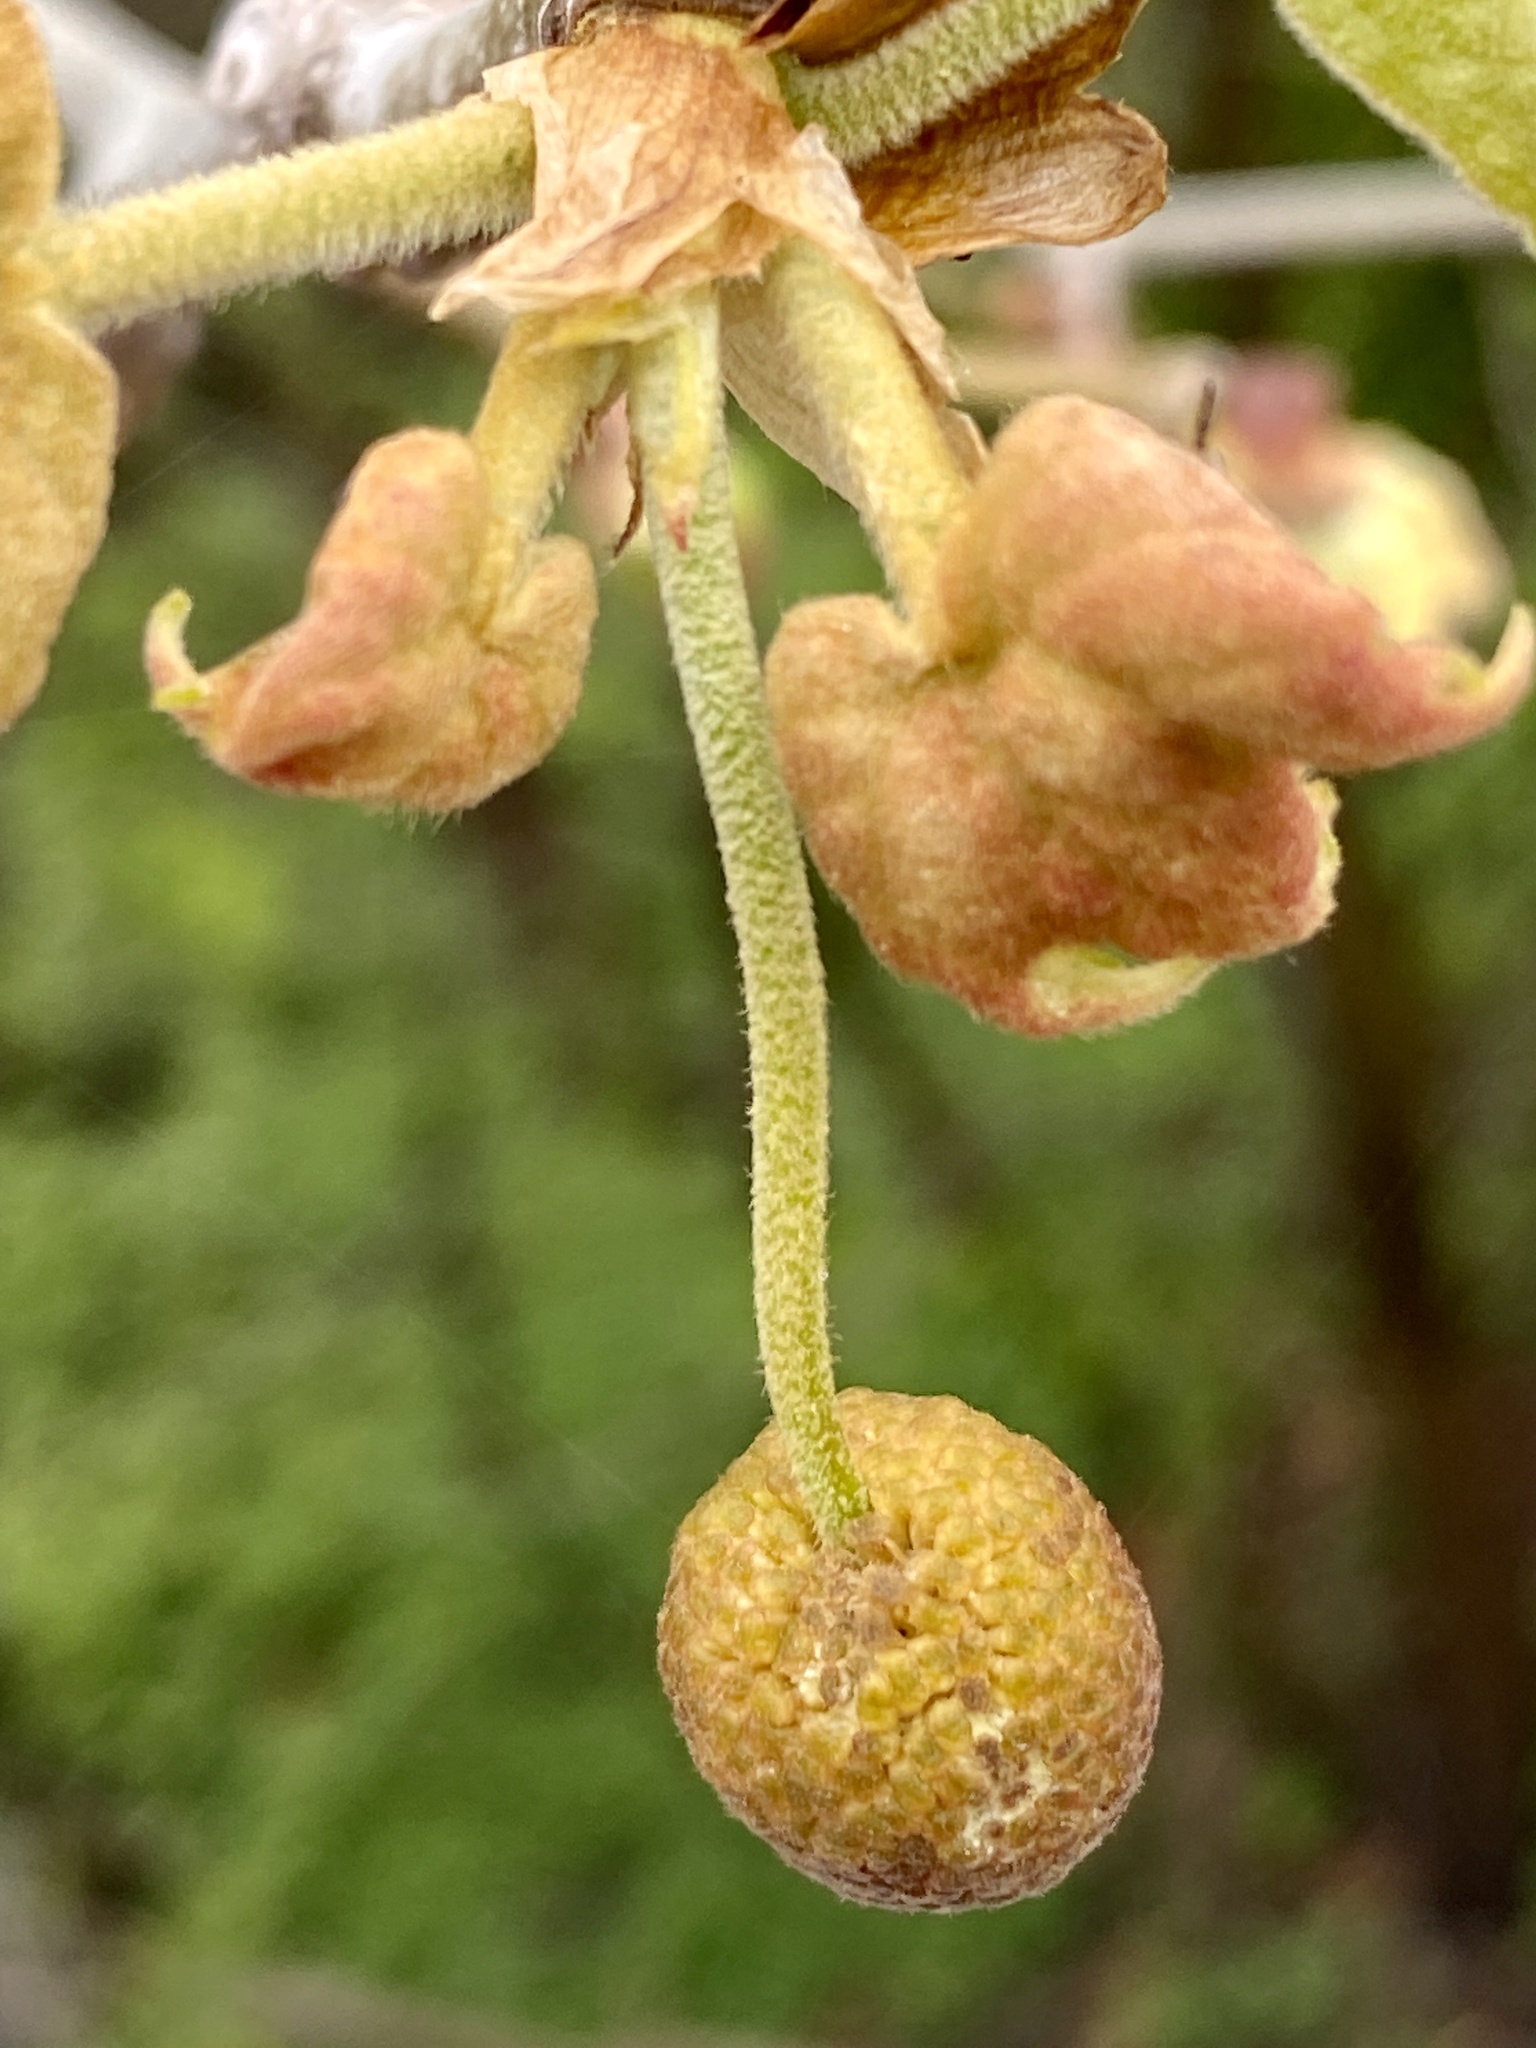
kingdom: Plantae
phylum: Tracheophyta
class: Magnoliopsida
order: Proteales
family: Platanaceae
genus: Platanus
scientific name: Platanus occidentalis
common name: American sycamore
